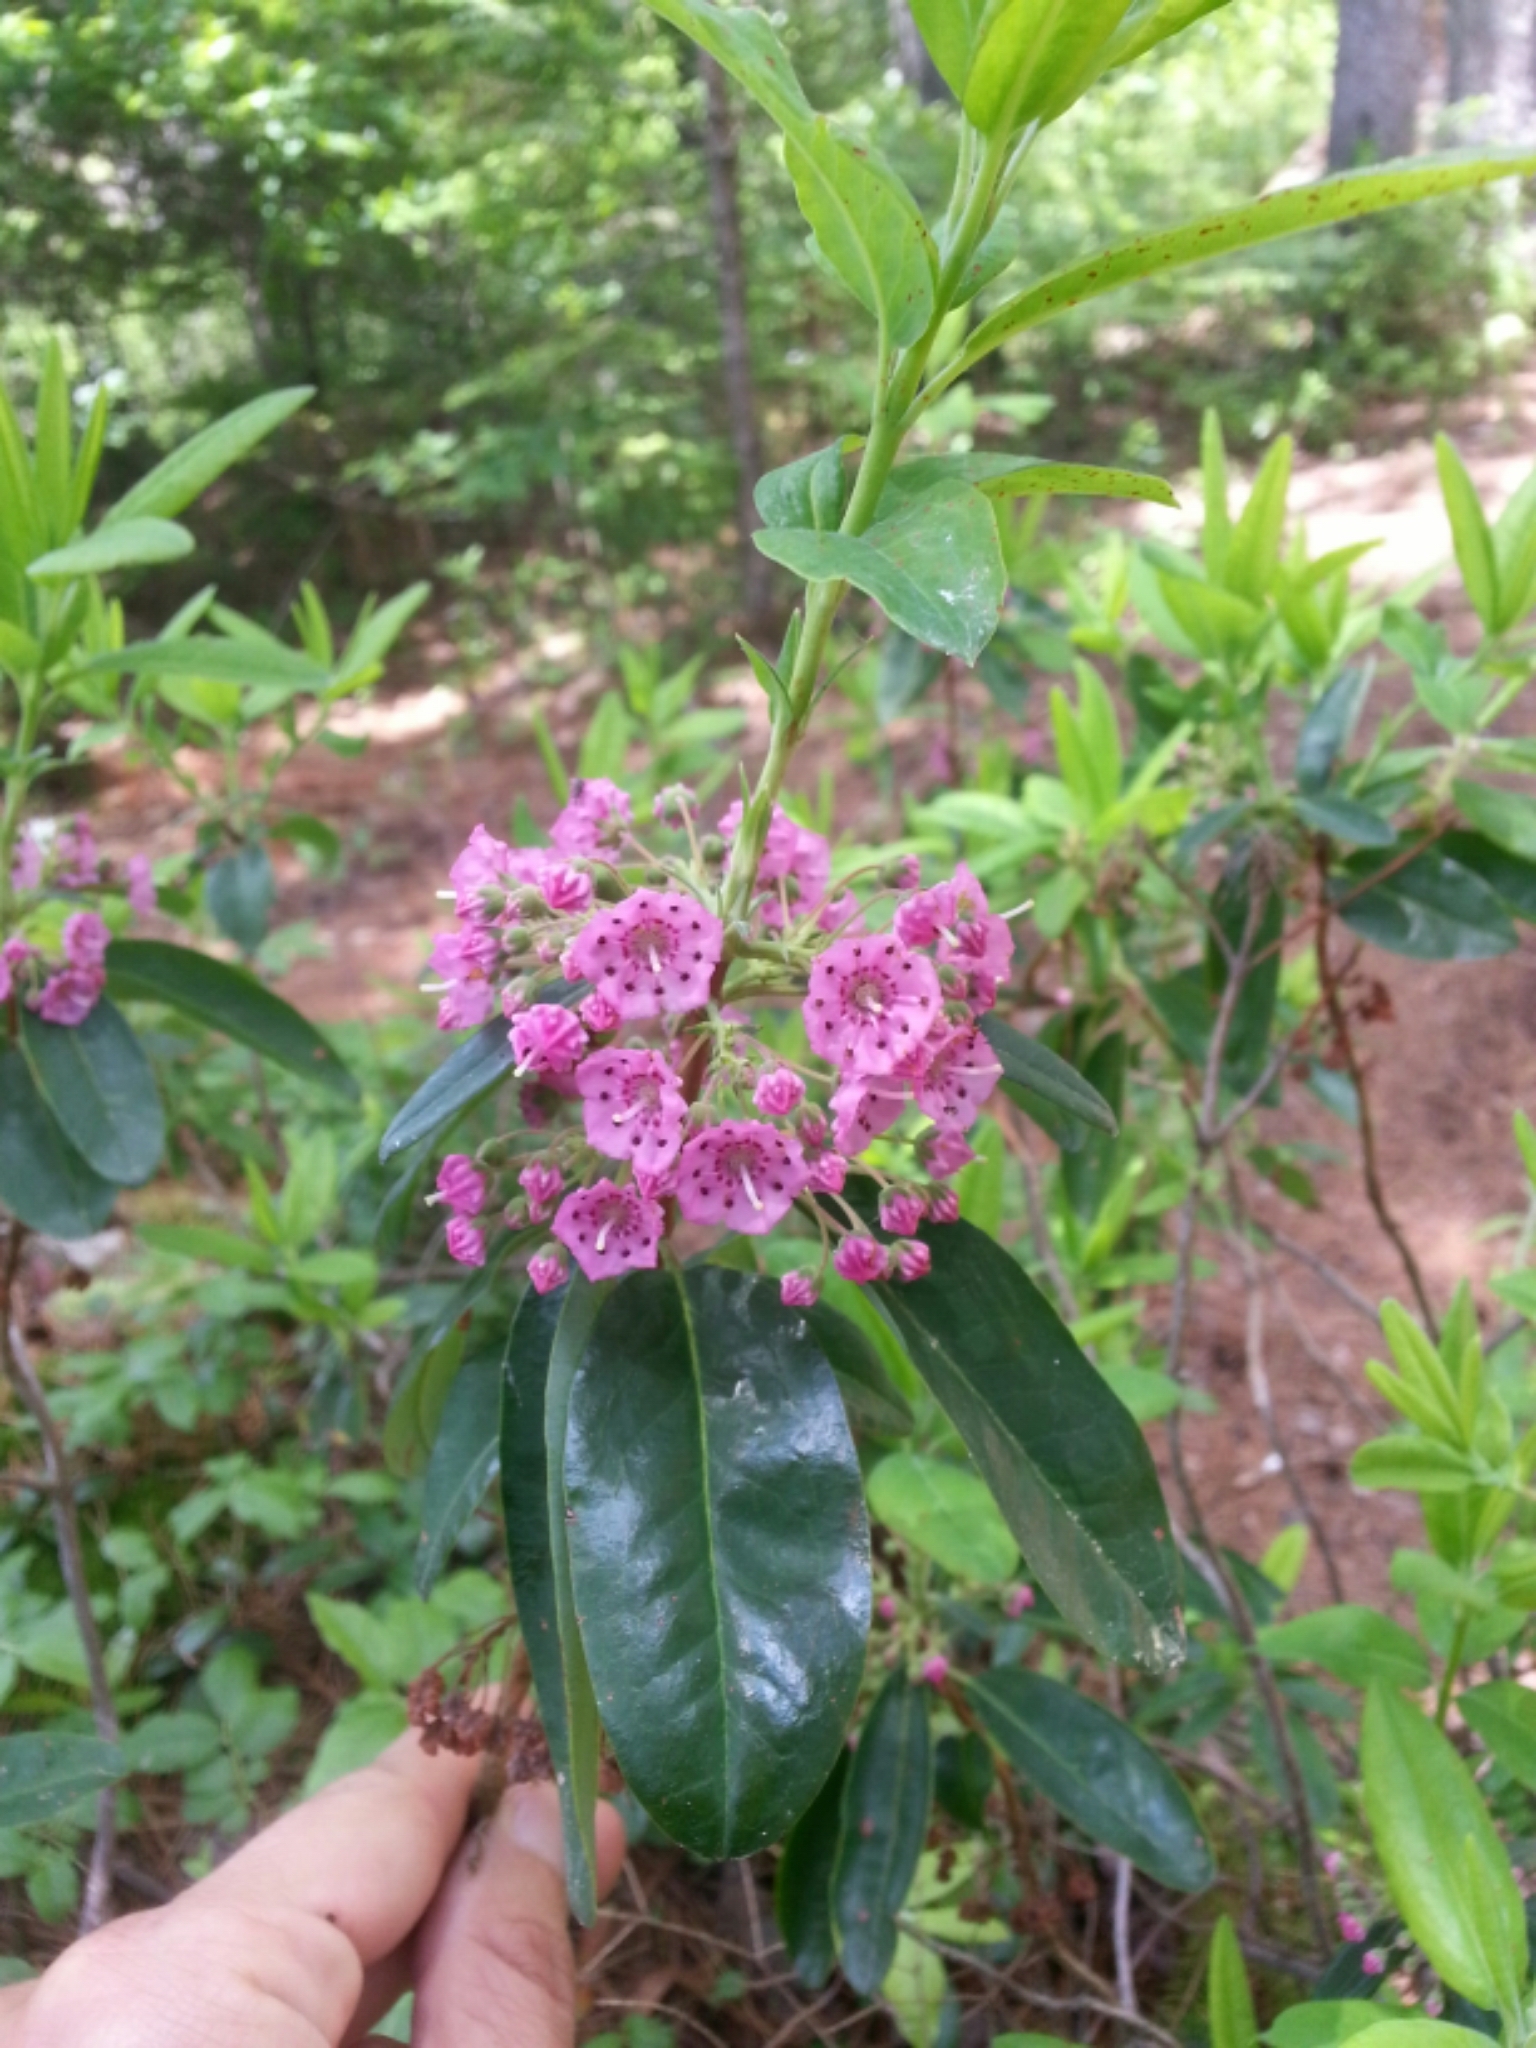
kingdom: Plantae
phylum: Tracheophyta
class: Magnoliopsida
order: Ericales
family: Ericaceae
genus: Kalmia
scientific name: Kalmia angustifolia
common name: Sheep-laurel
